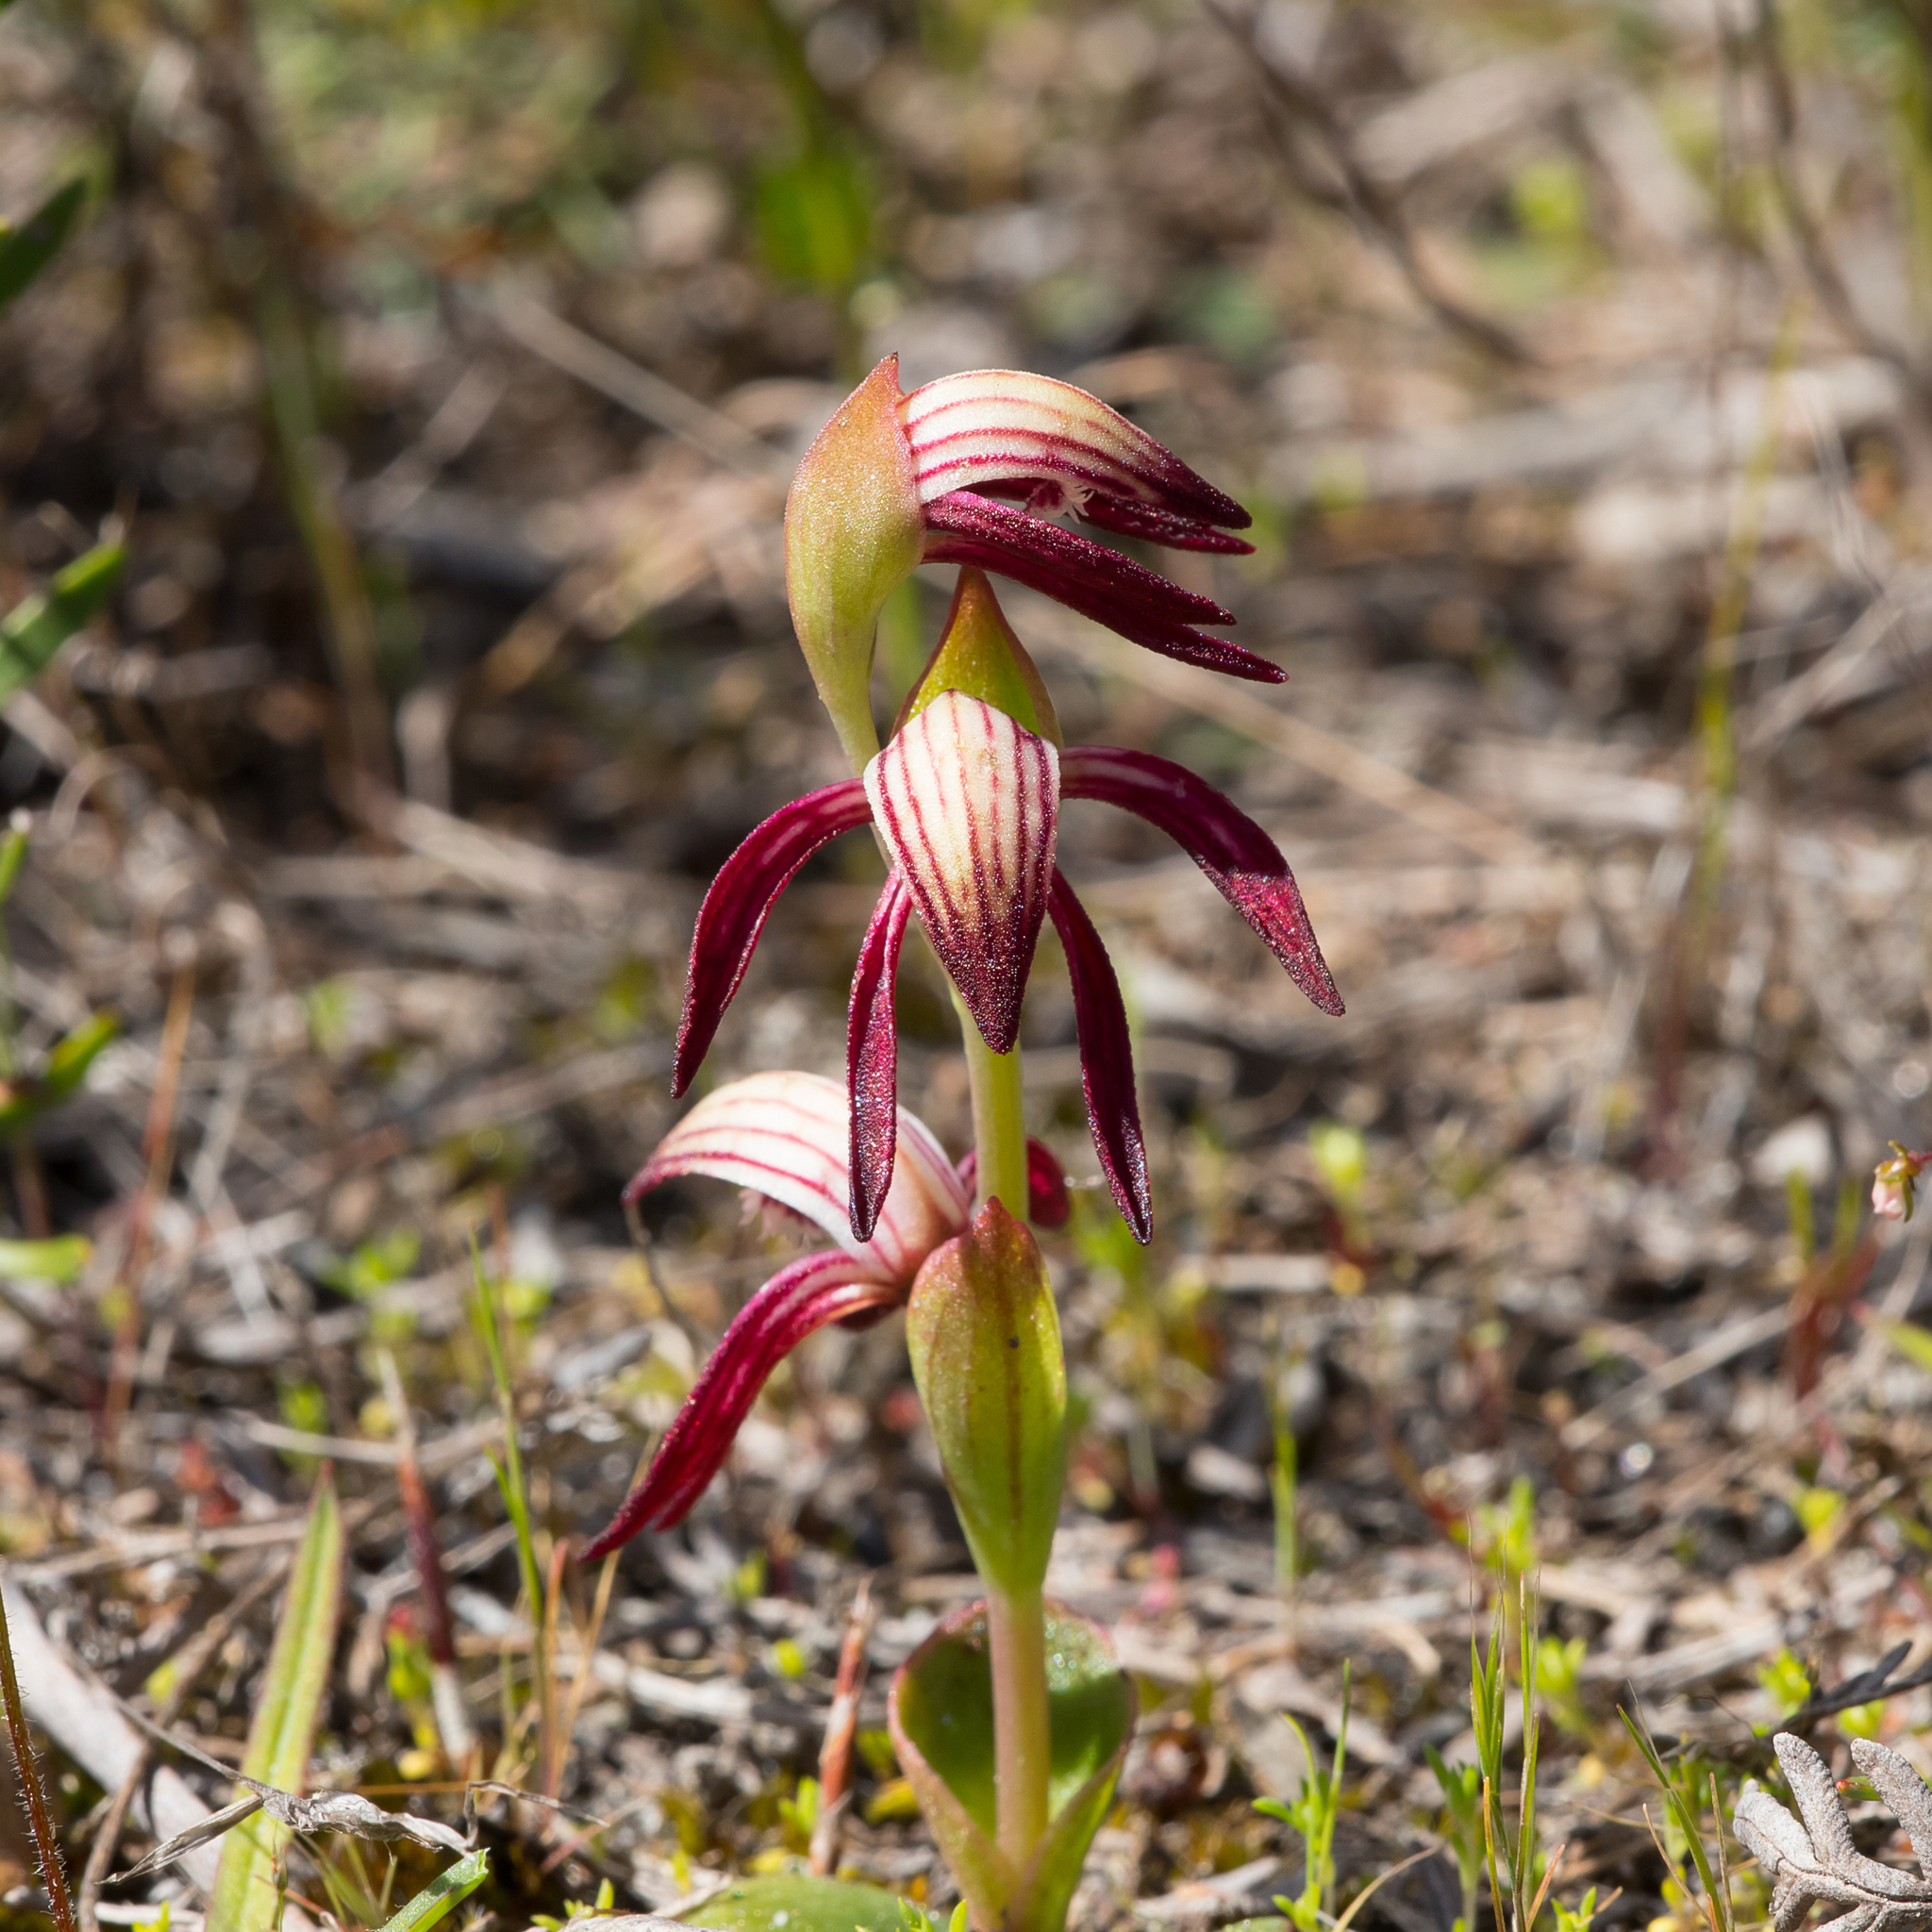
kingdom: Plantae
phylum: Tracheophyta
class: Liliopsida
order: Asparagales
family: Orchidaceae
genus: Pyrorchis
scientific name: Pyrorchis nigricans
